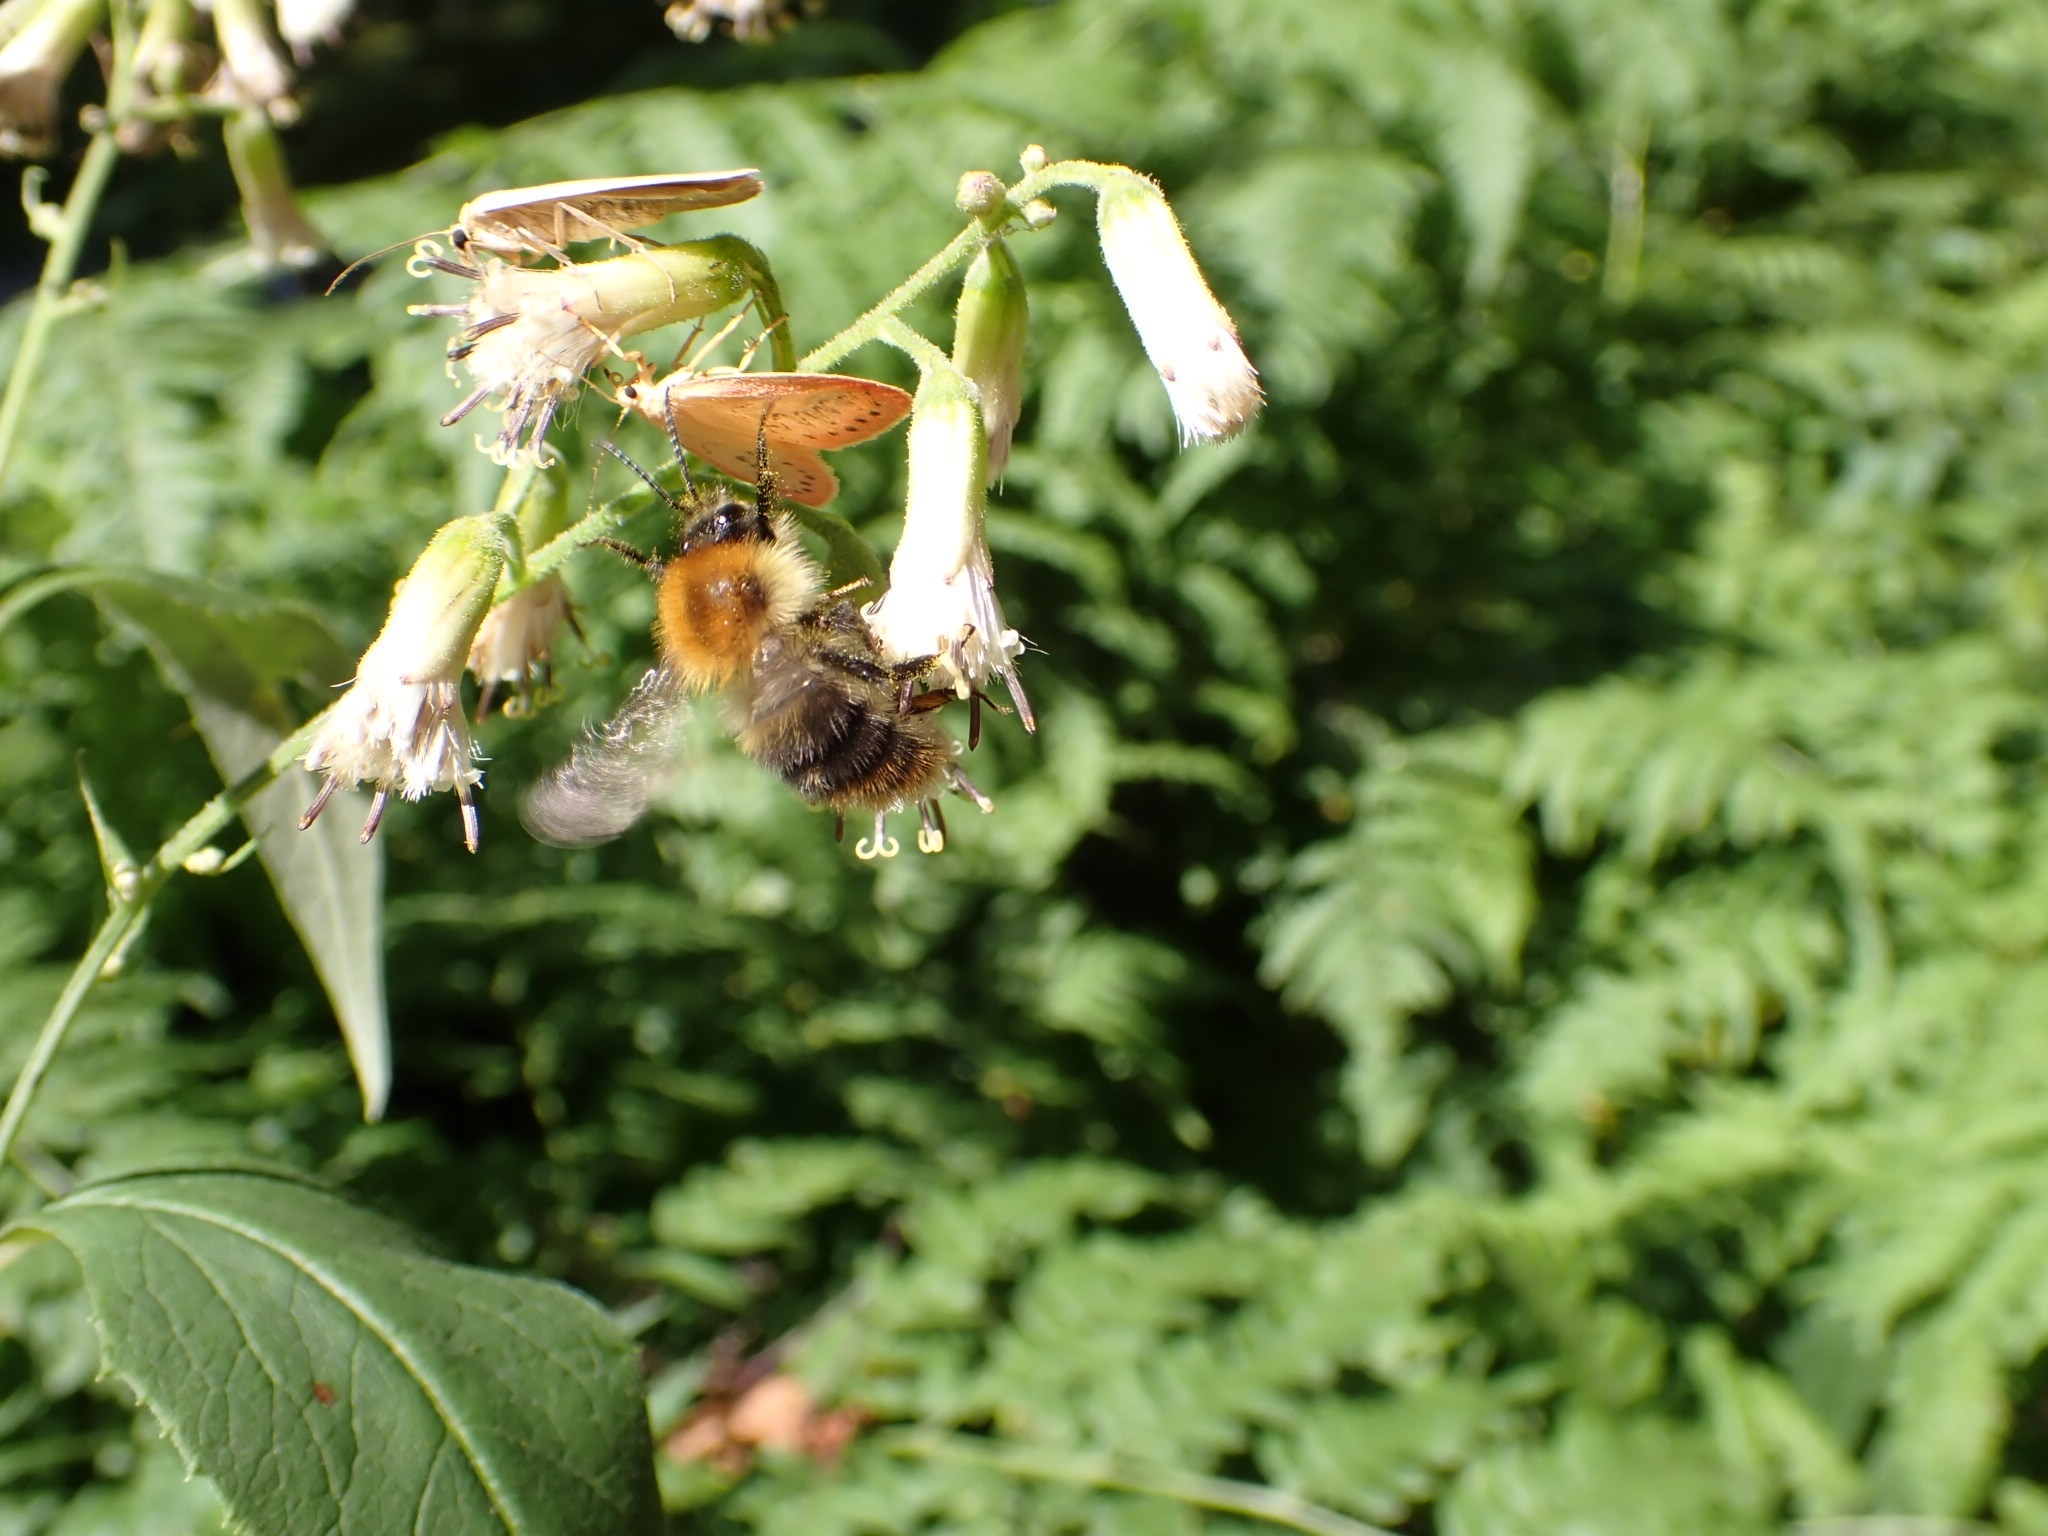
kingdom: Plantae
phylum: Tracheophyta
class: Magnoliopsida
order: Asterales
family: Asteraceae
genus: Parasenecio
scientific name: Parasenecio hastatus
